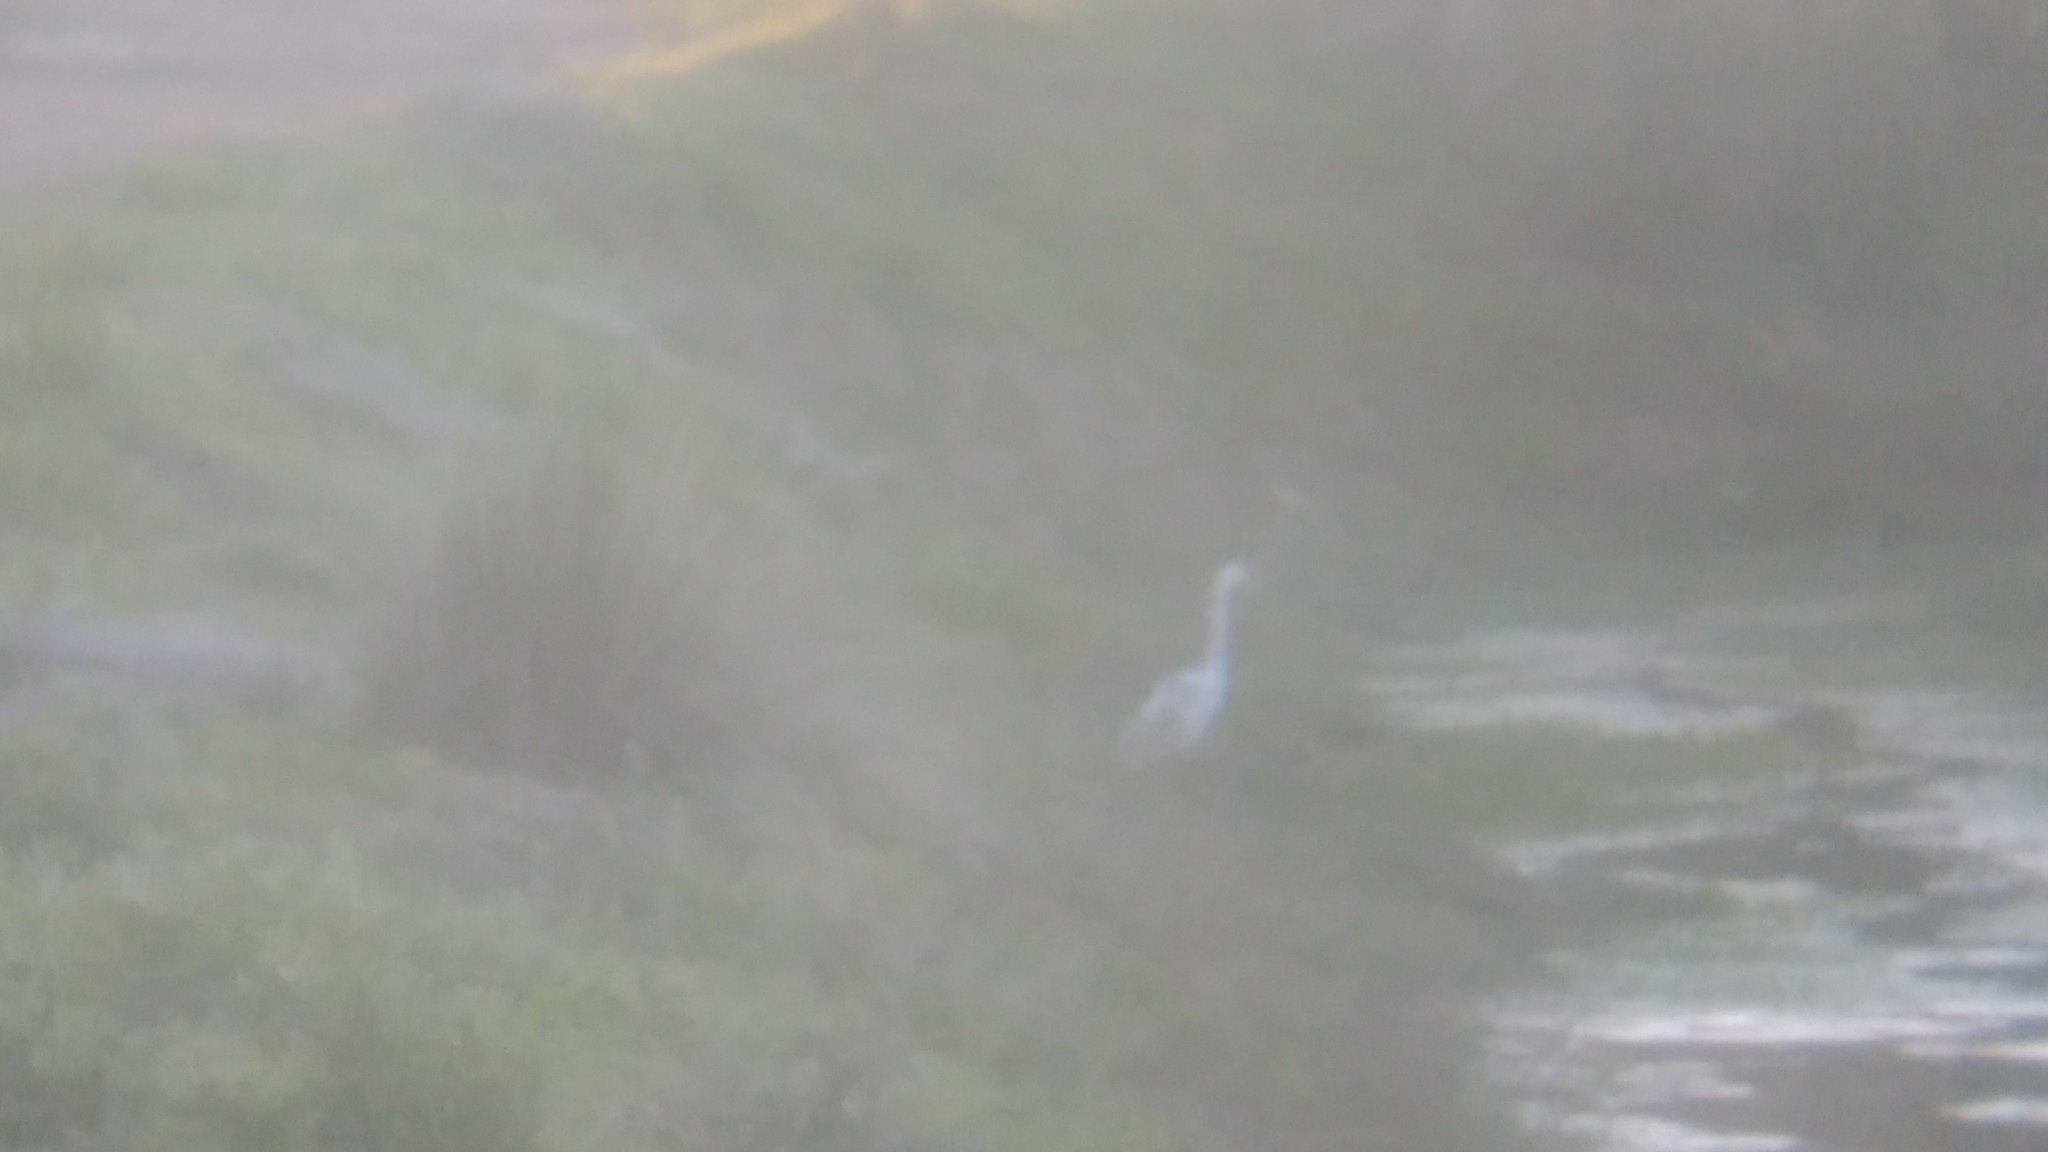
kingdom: Animalia
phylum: Chordata
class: Aves
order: Pelecaniformes
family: Ardeidae
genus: Ardea
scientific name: Ardea alba
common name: Great egret
